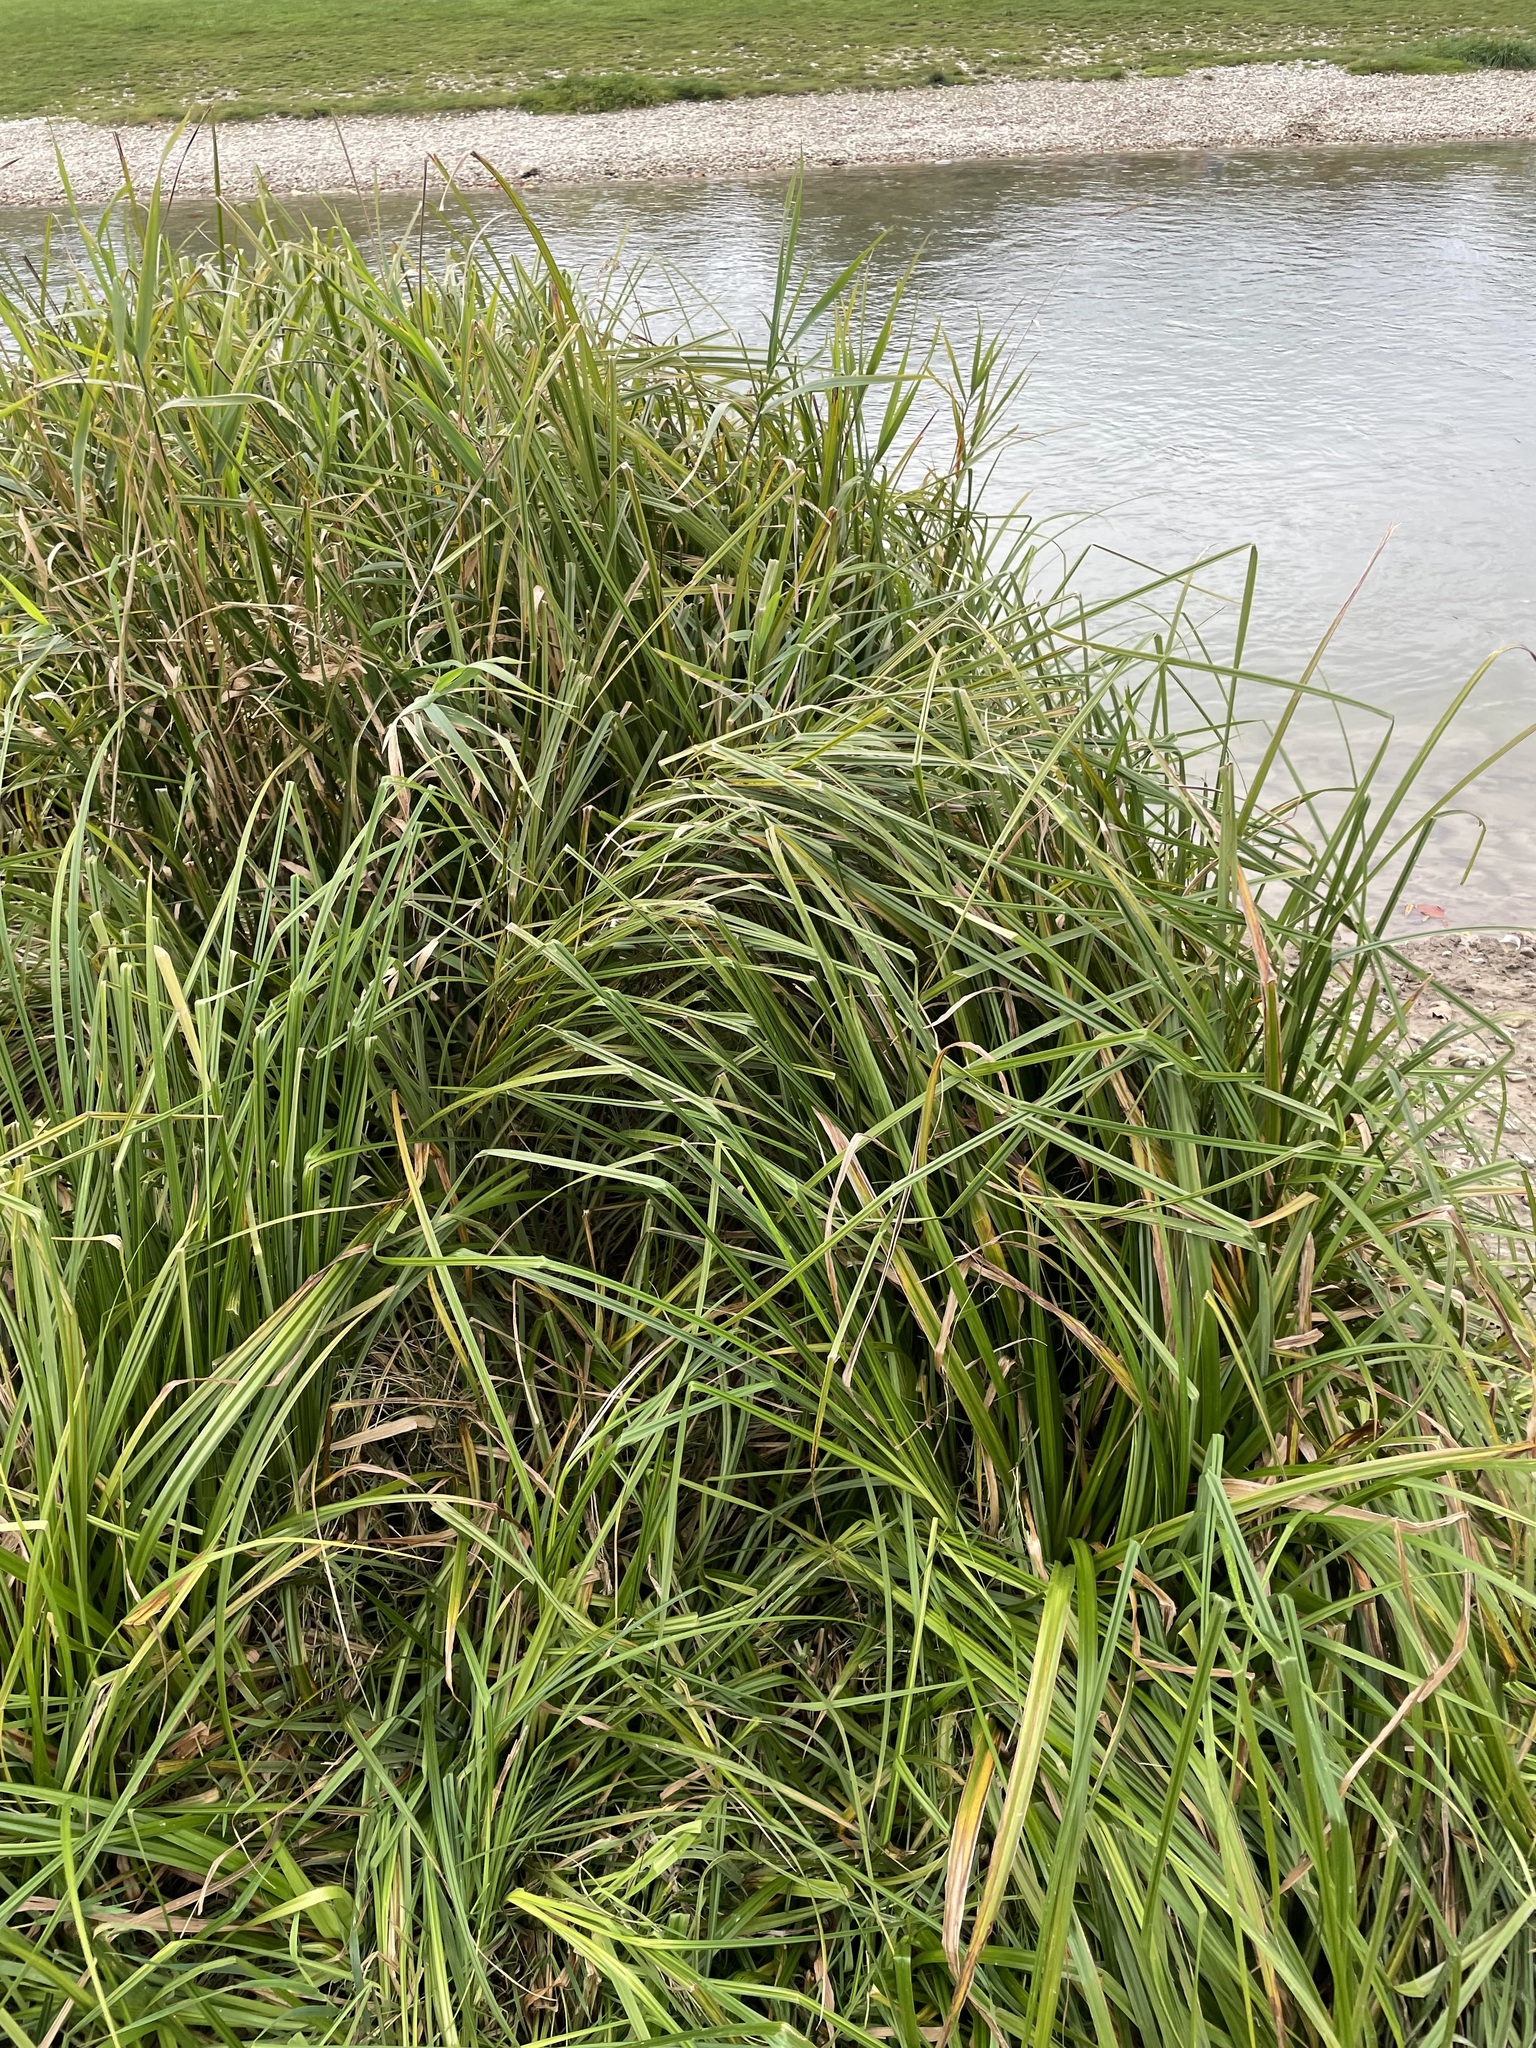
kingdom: Plantae
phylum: Tracheophyta
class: Liliopsida
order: Poales
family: Cyperaceae
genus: Carex
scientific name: Carex acutiformis
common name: Lesser pond-sedge
